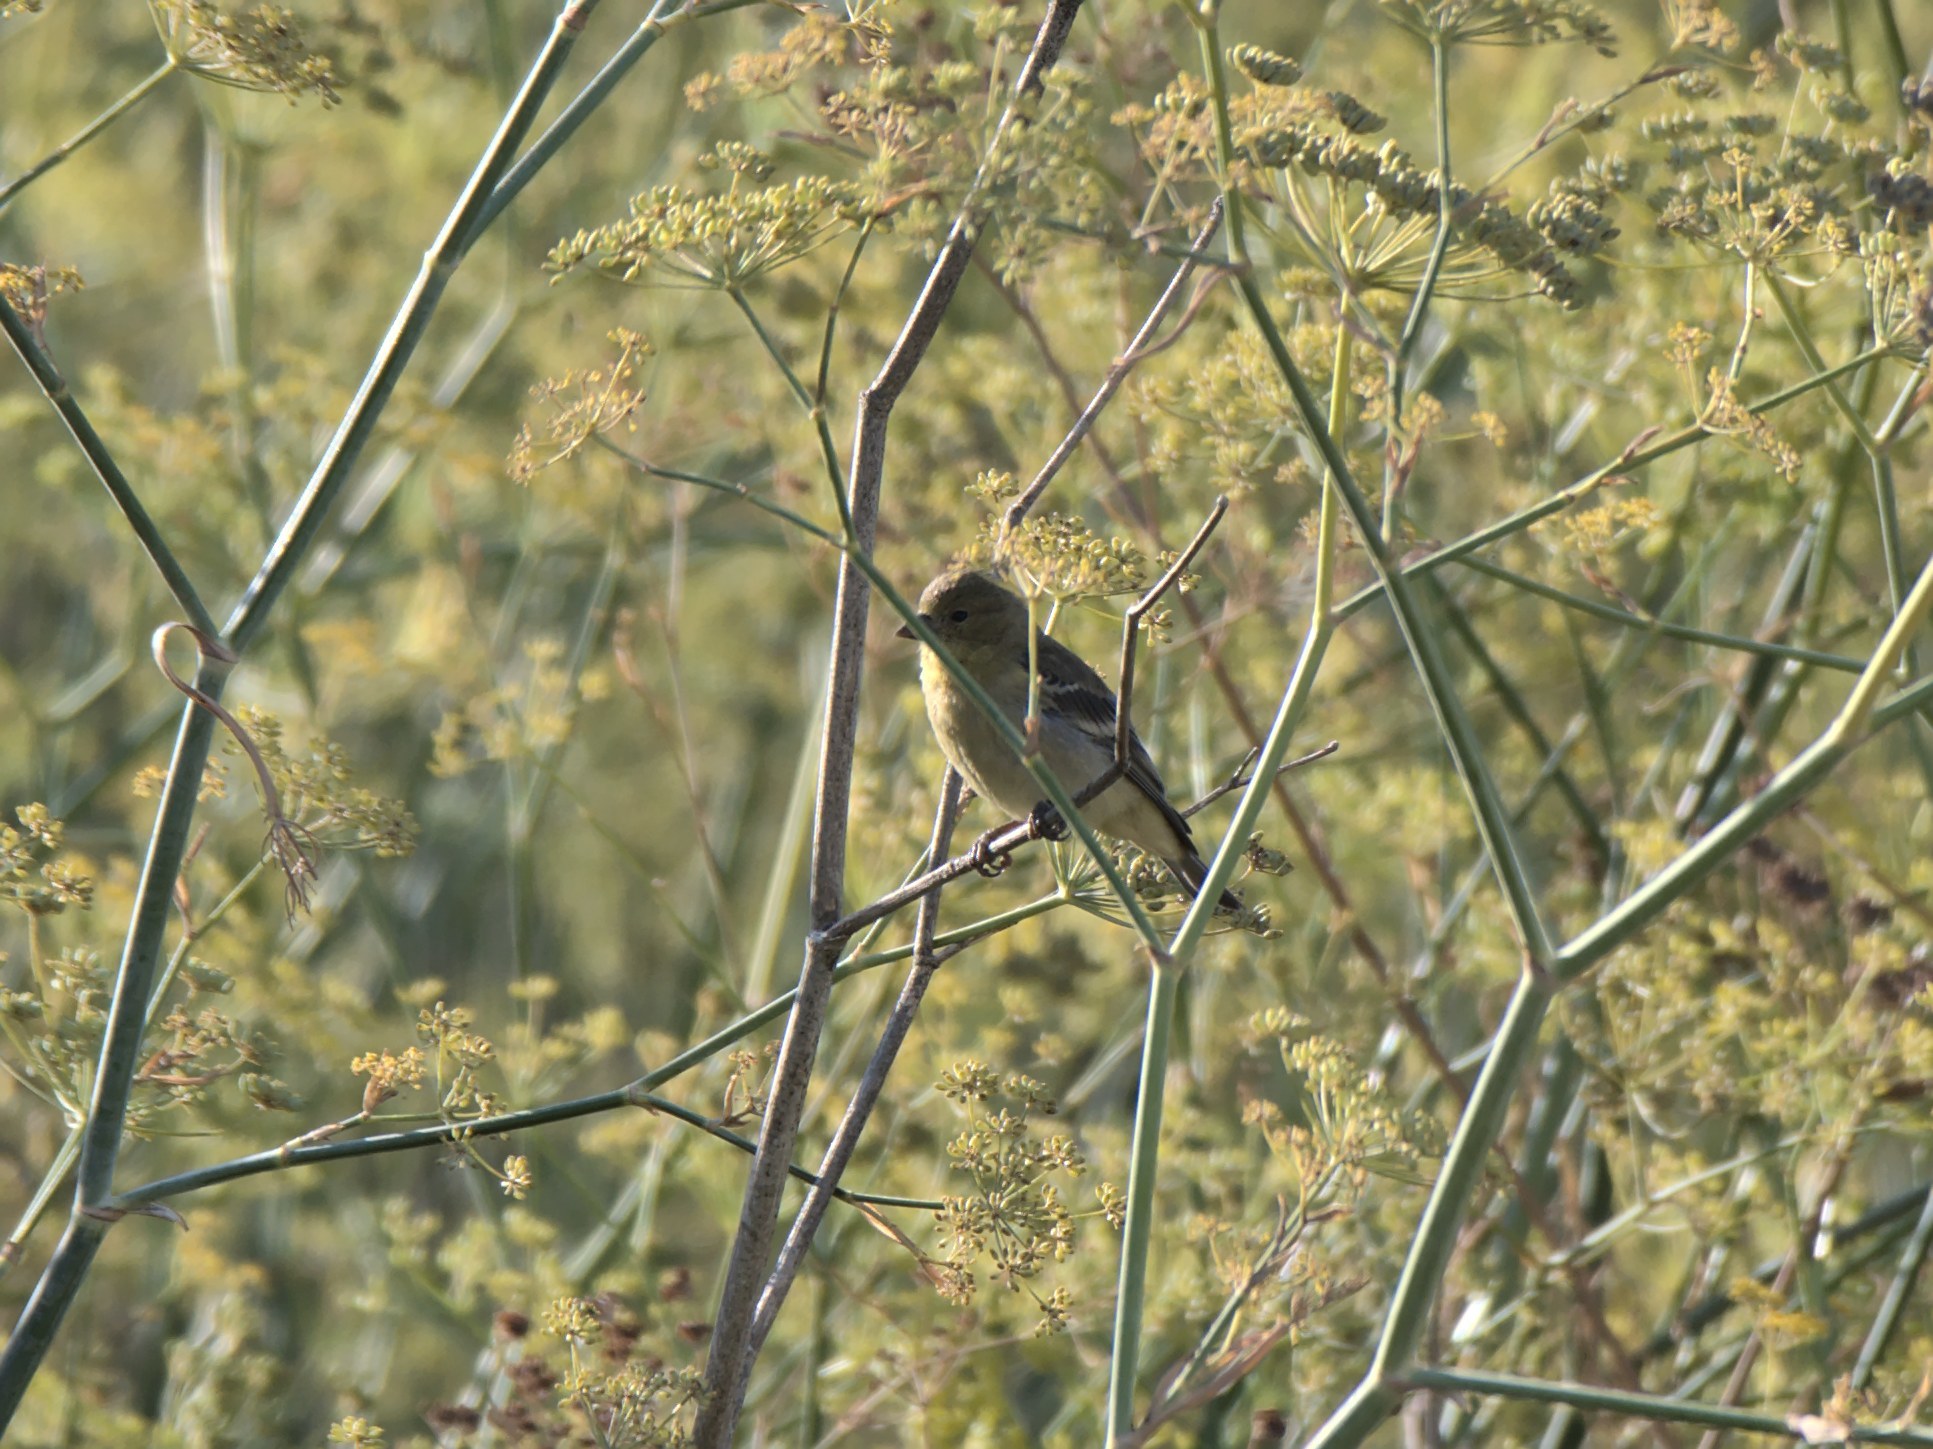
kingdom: Animalia
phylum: Chordata
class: Aves
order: Passeriformes
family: Fringillidae
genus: Spinus
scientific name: Spinus psaltria
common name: Lesser goldfinch
